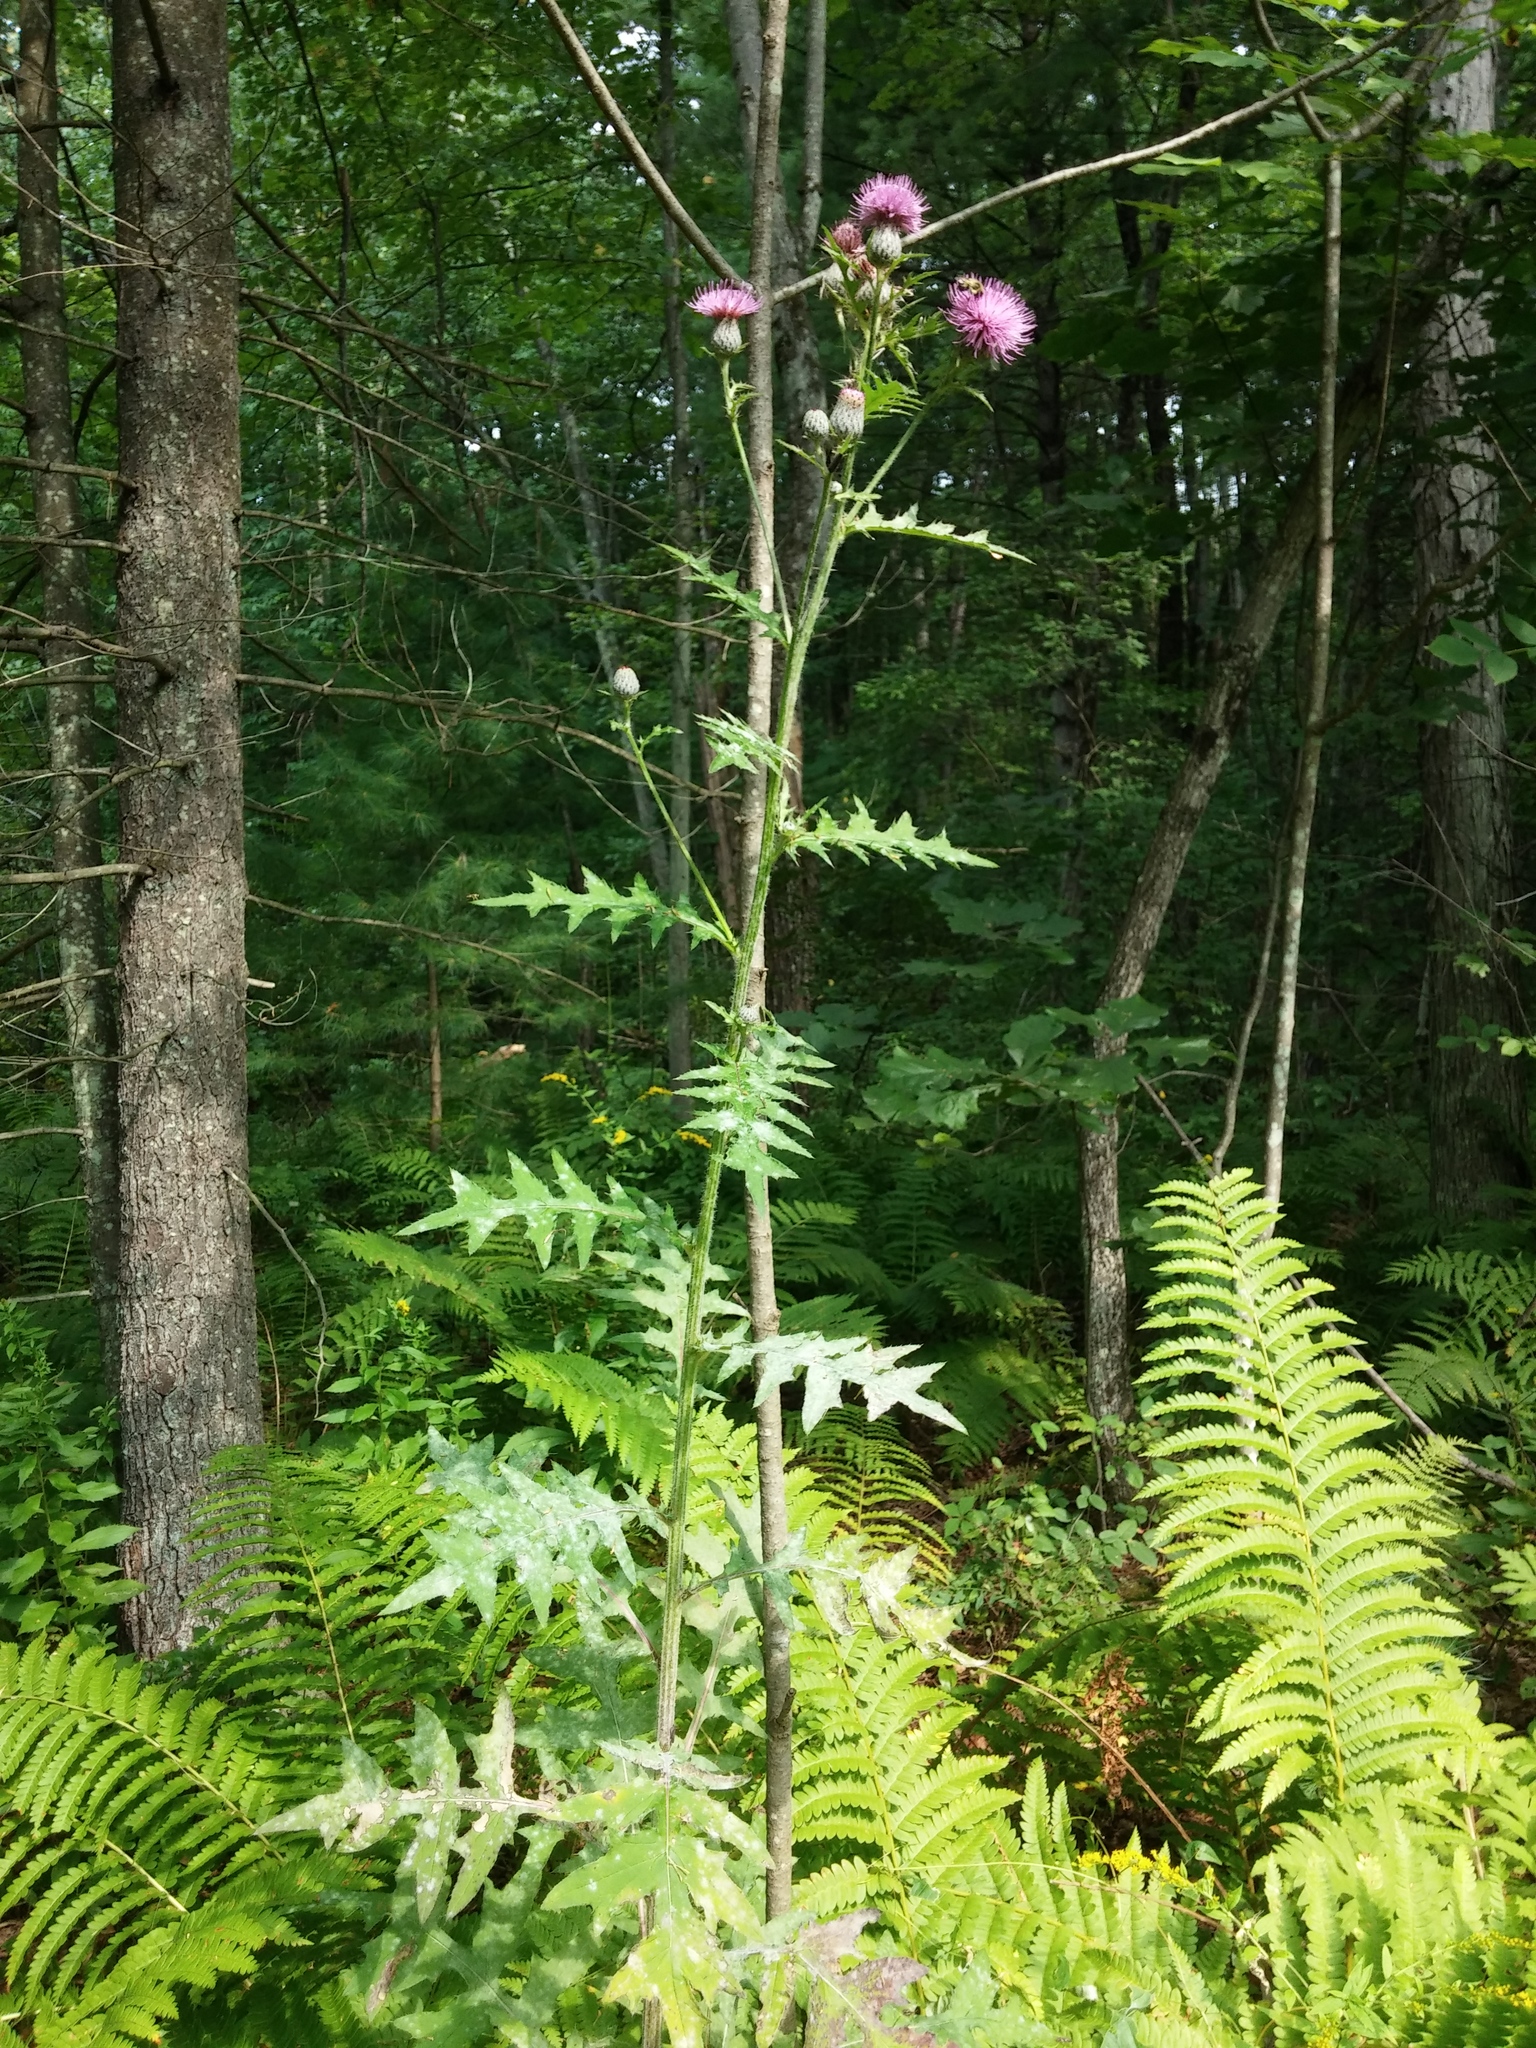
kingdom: Plantae
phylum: Tracheophyta
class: Magnoliopsida
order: Asterales
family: Asteraceae
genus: Cirsium
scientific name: Cirsium muticum
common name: Dunce-nettle
